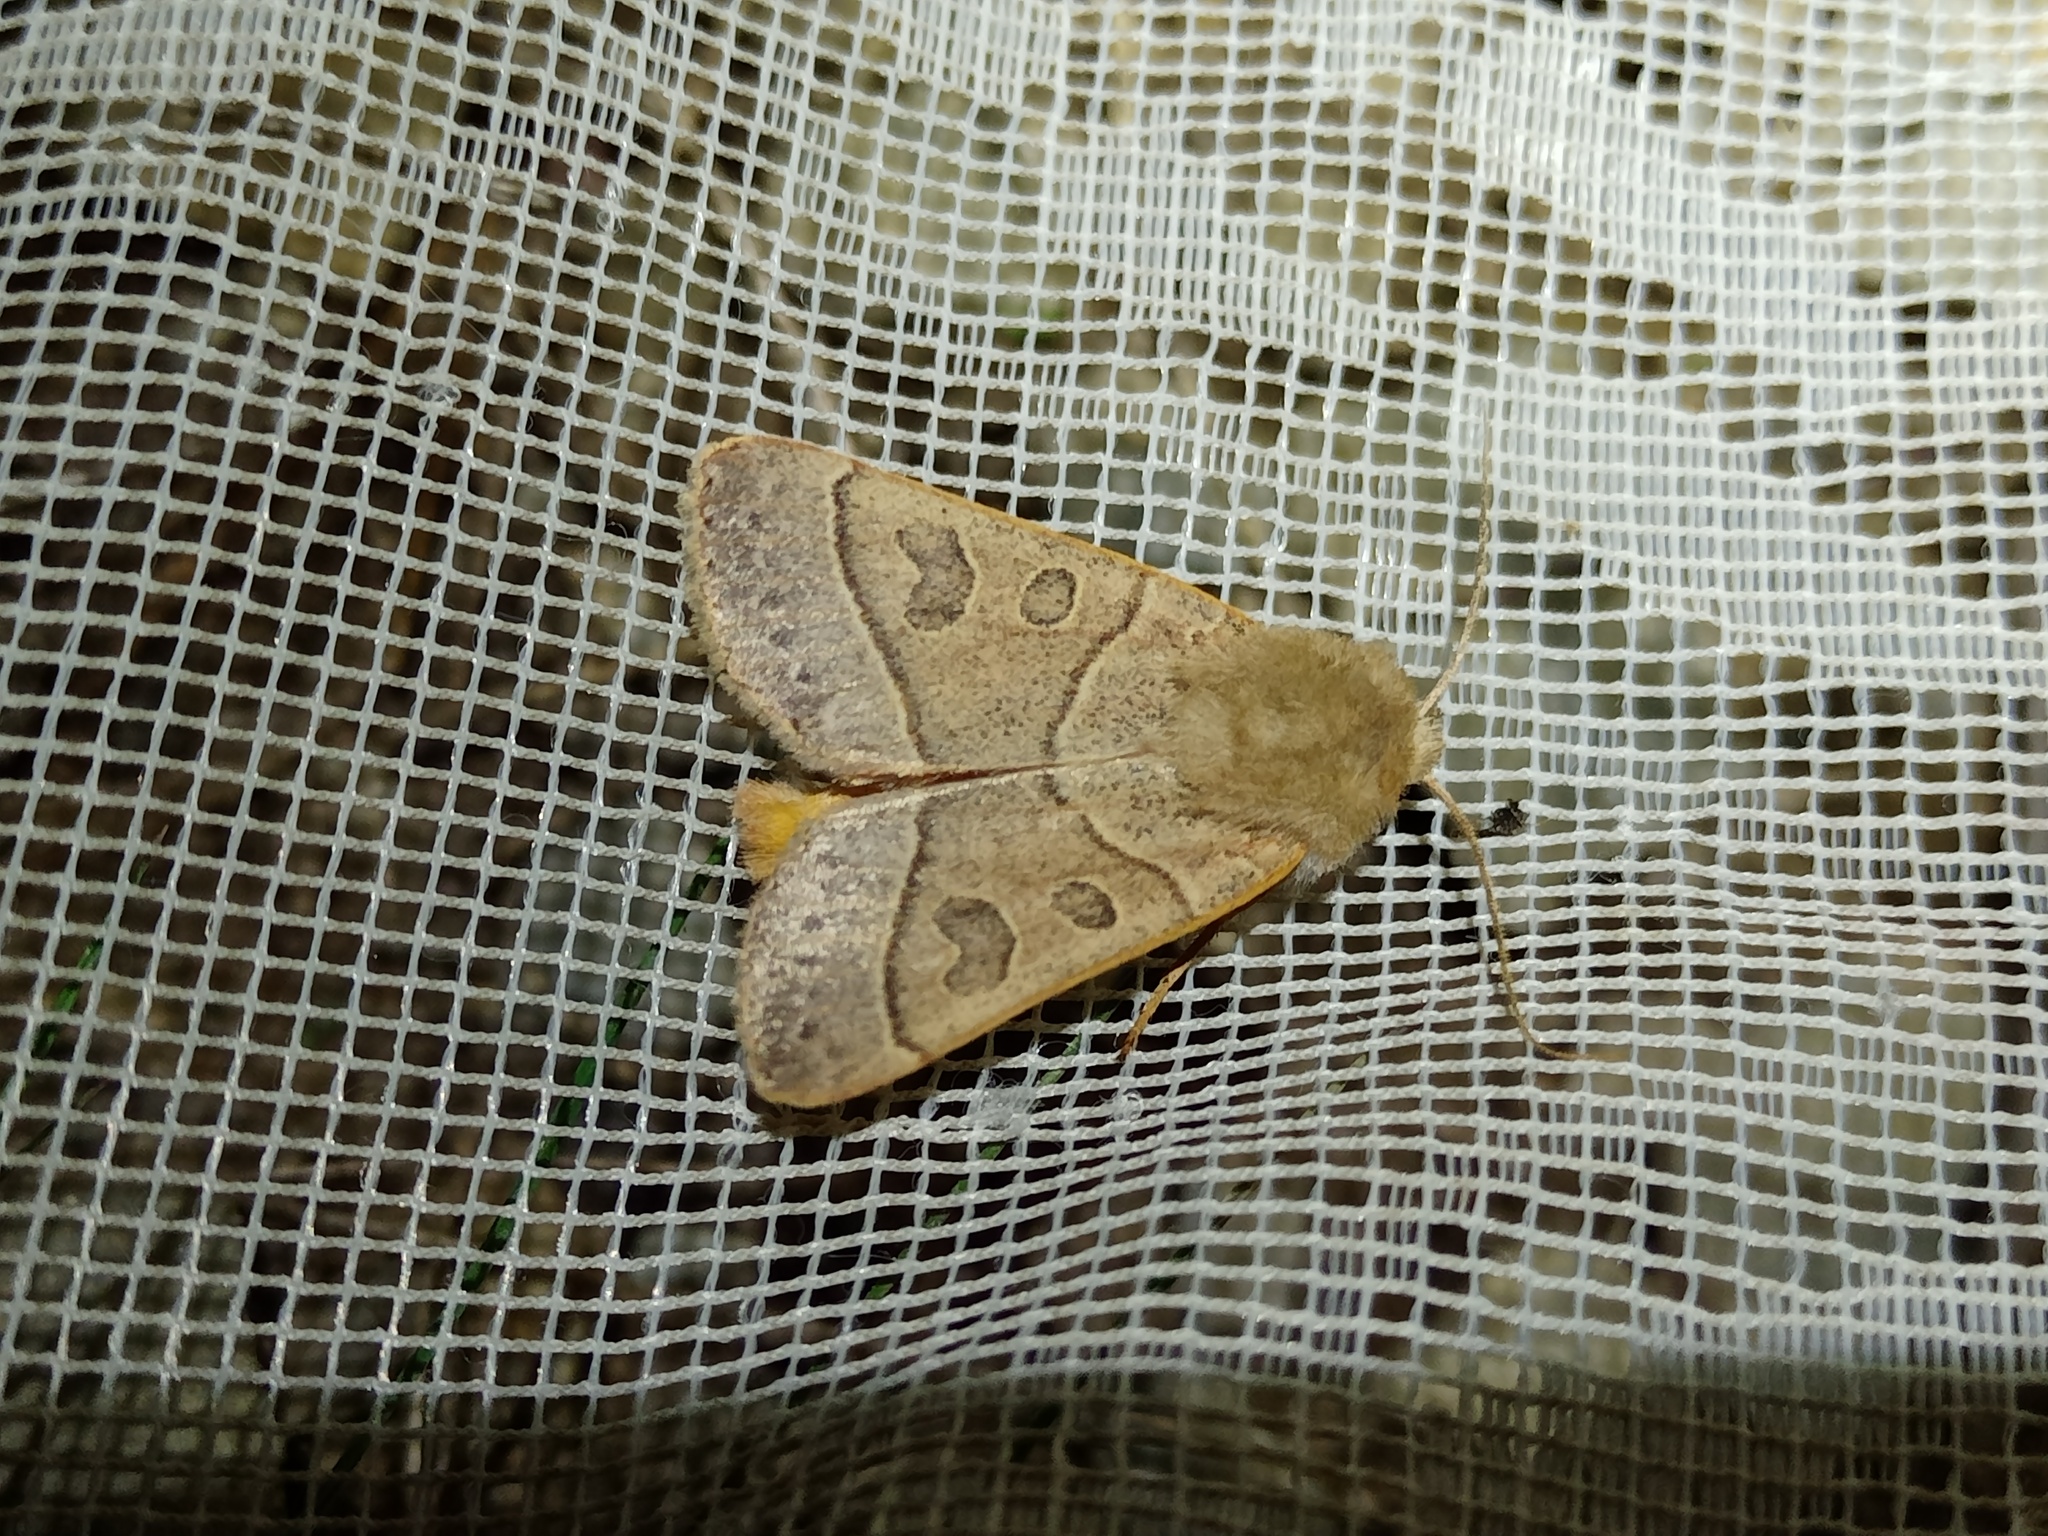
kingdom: Animalia
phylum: Arthropoda
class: Insecta
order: Lepidoptera
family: Noctuidae
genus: Mesogona
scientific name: Mesogona acetosellae
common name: Pale stigma
